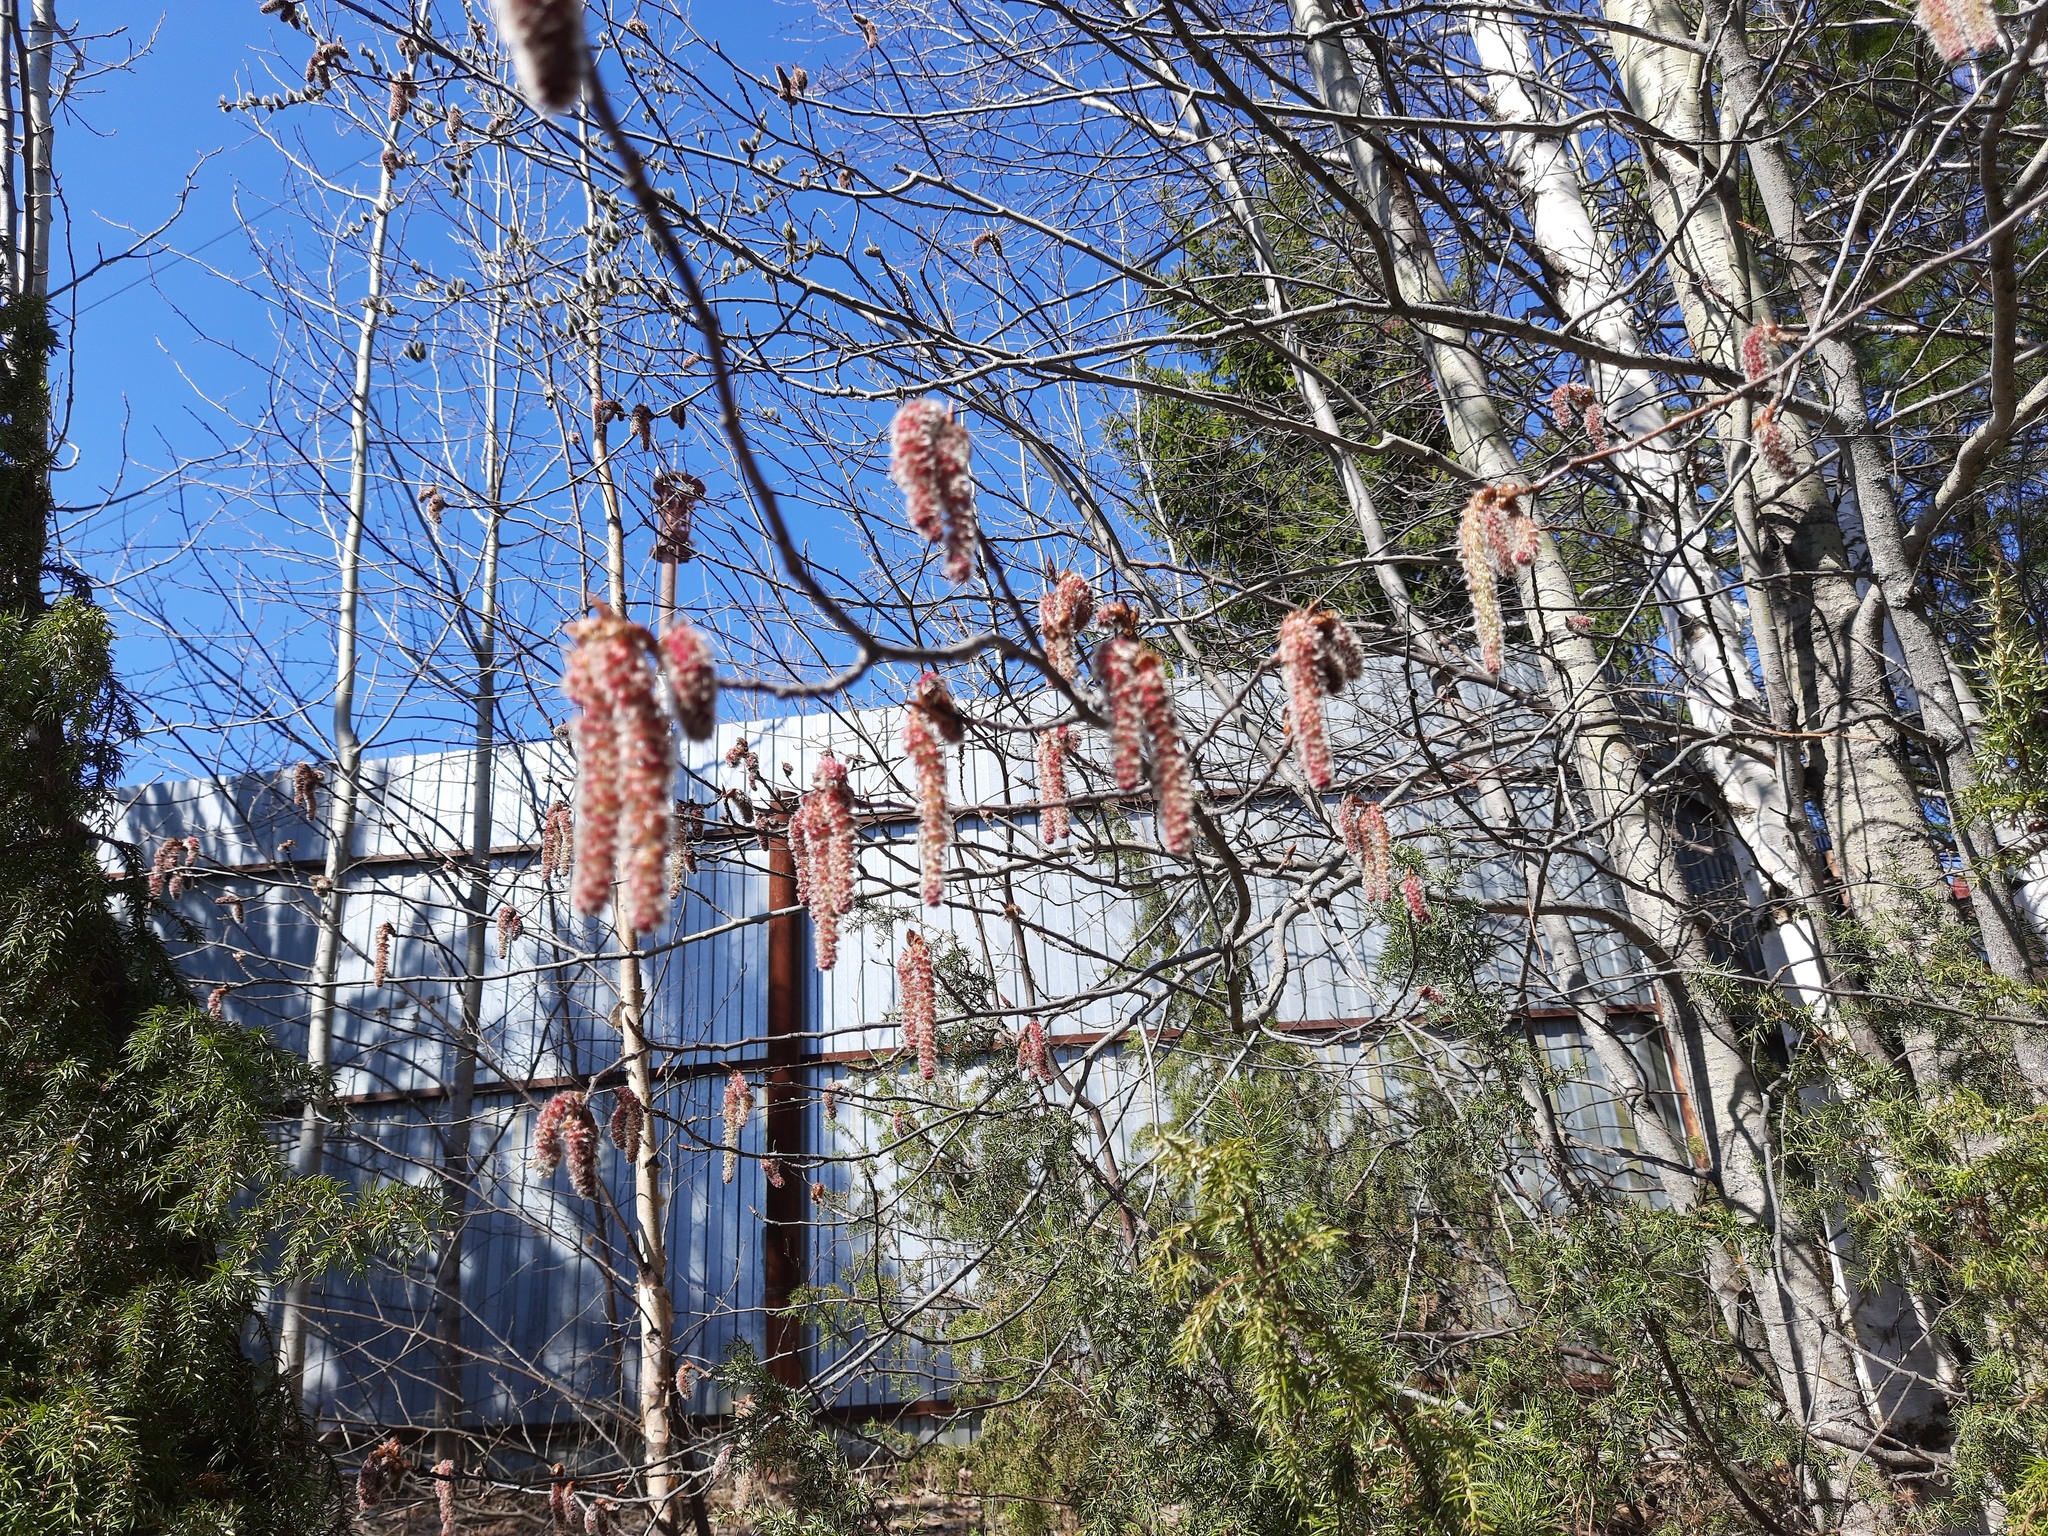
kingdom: Plantae
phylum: Tracheophyta
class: Magnoliopsida
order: Malpighiales
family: Salicaceae
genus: Populus
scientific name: Populus tremula
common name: European aspen
